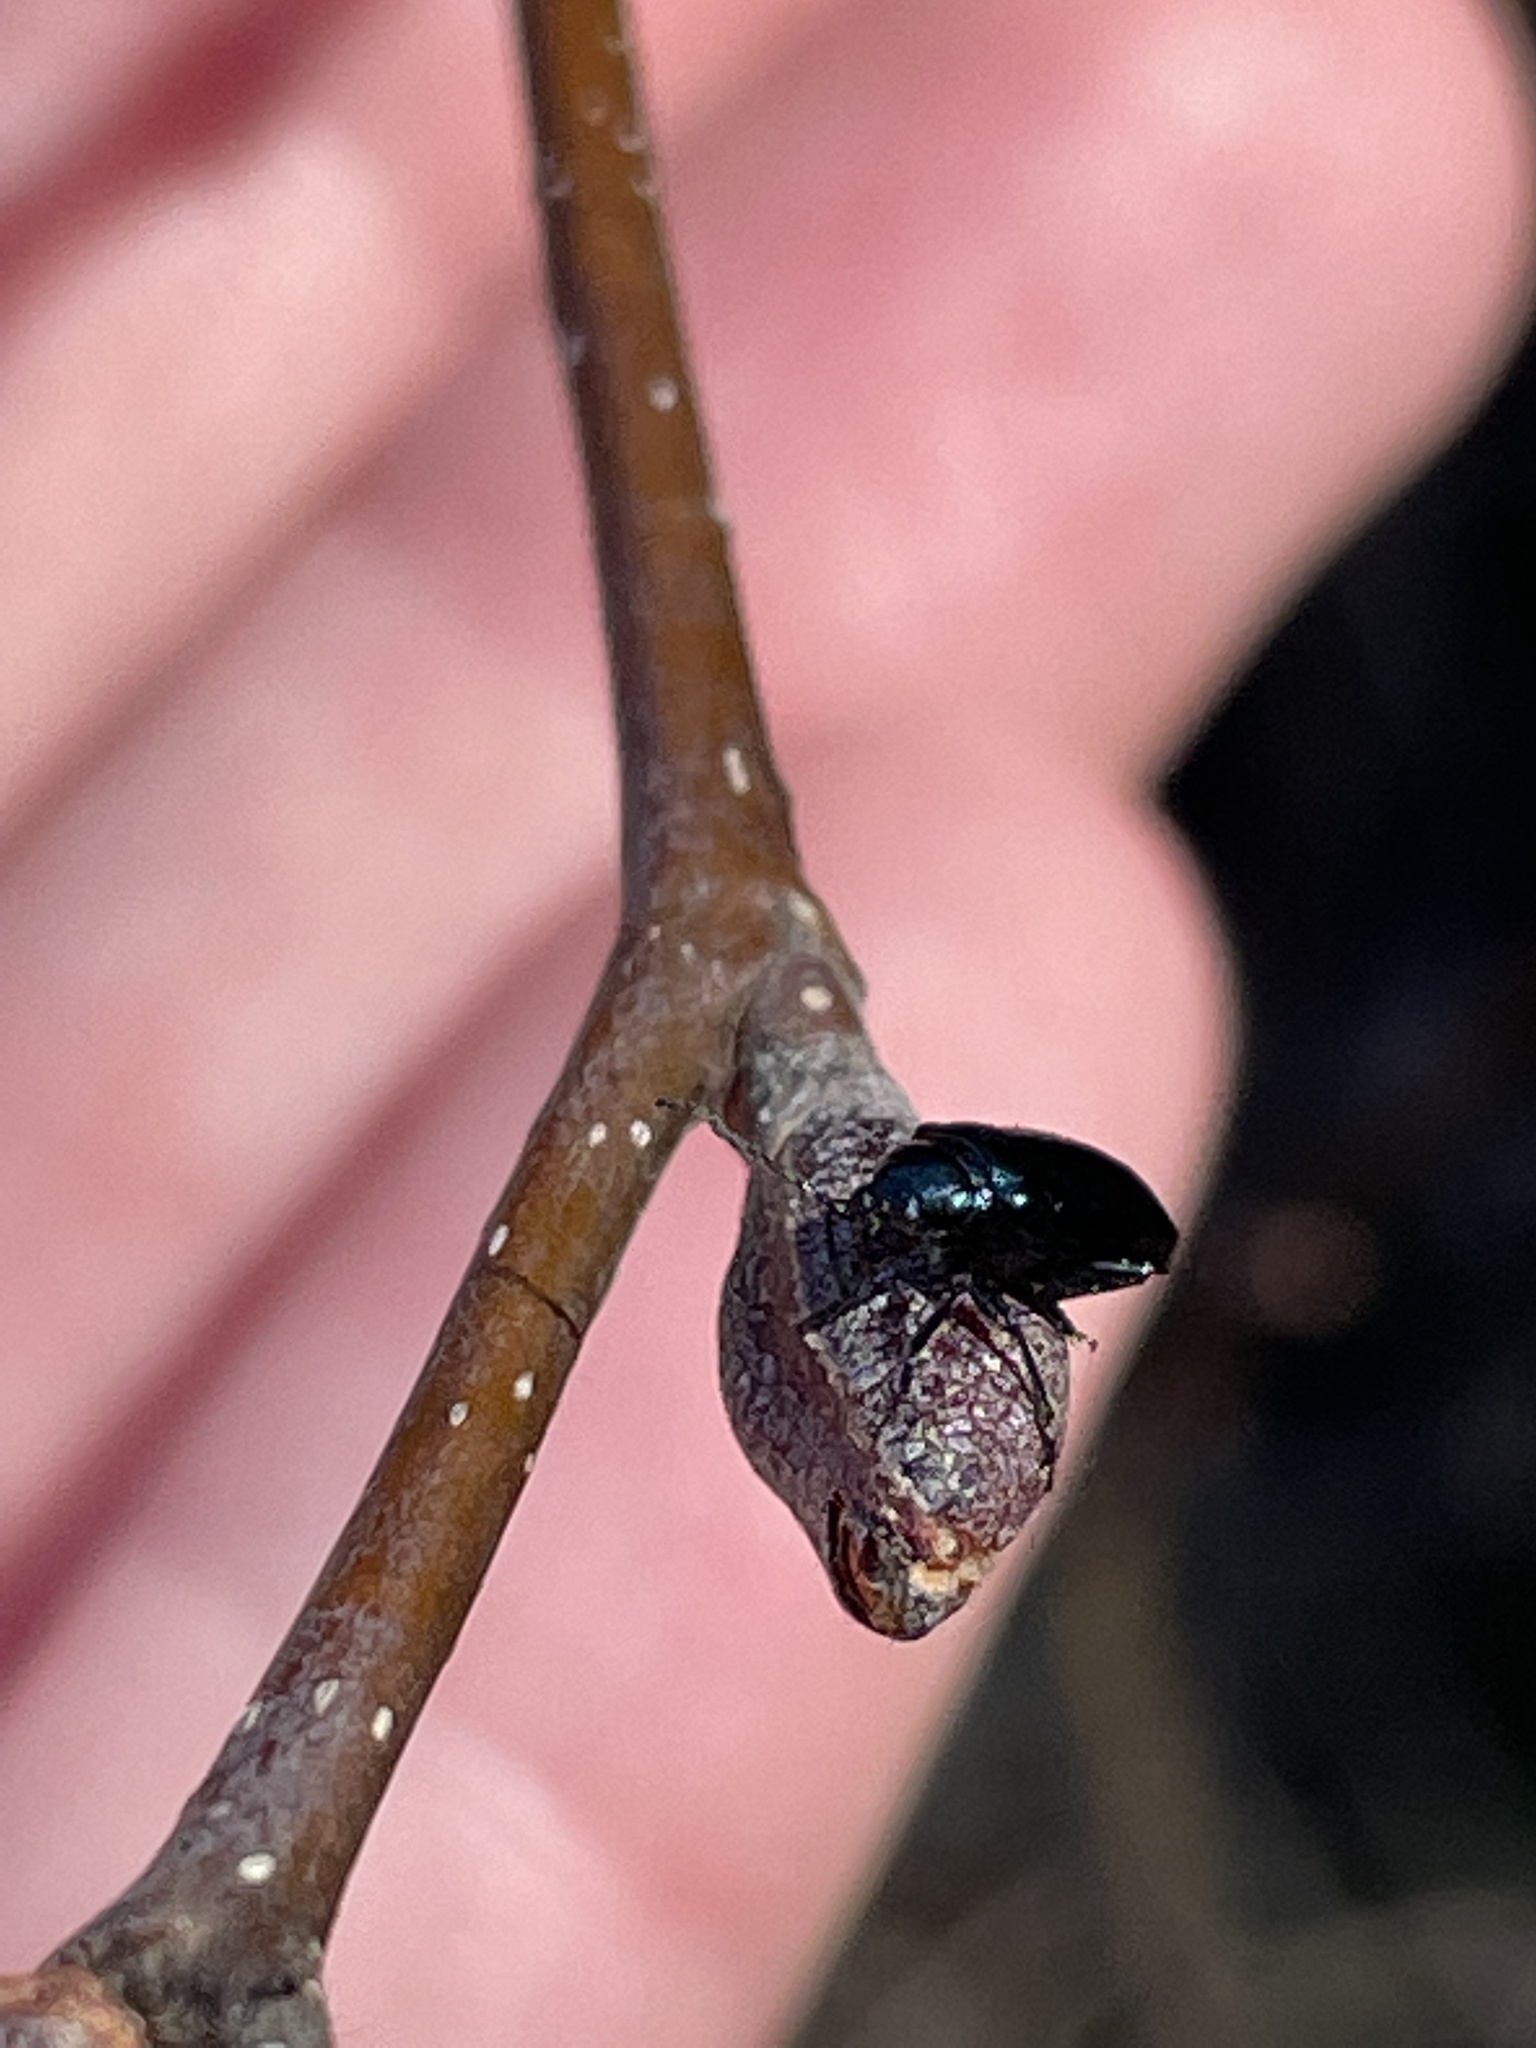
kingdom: Animalia
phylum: Arthropoda
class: Insecta
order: Coleoptera
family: Chrysomelidae
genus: Altica
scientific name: Altica ambiens
